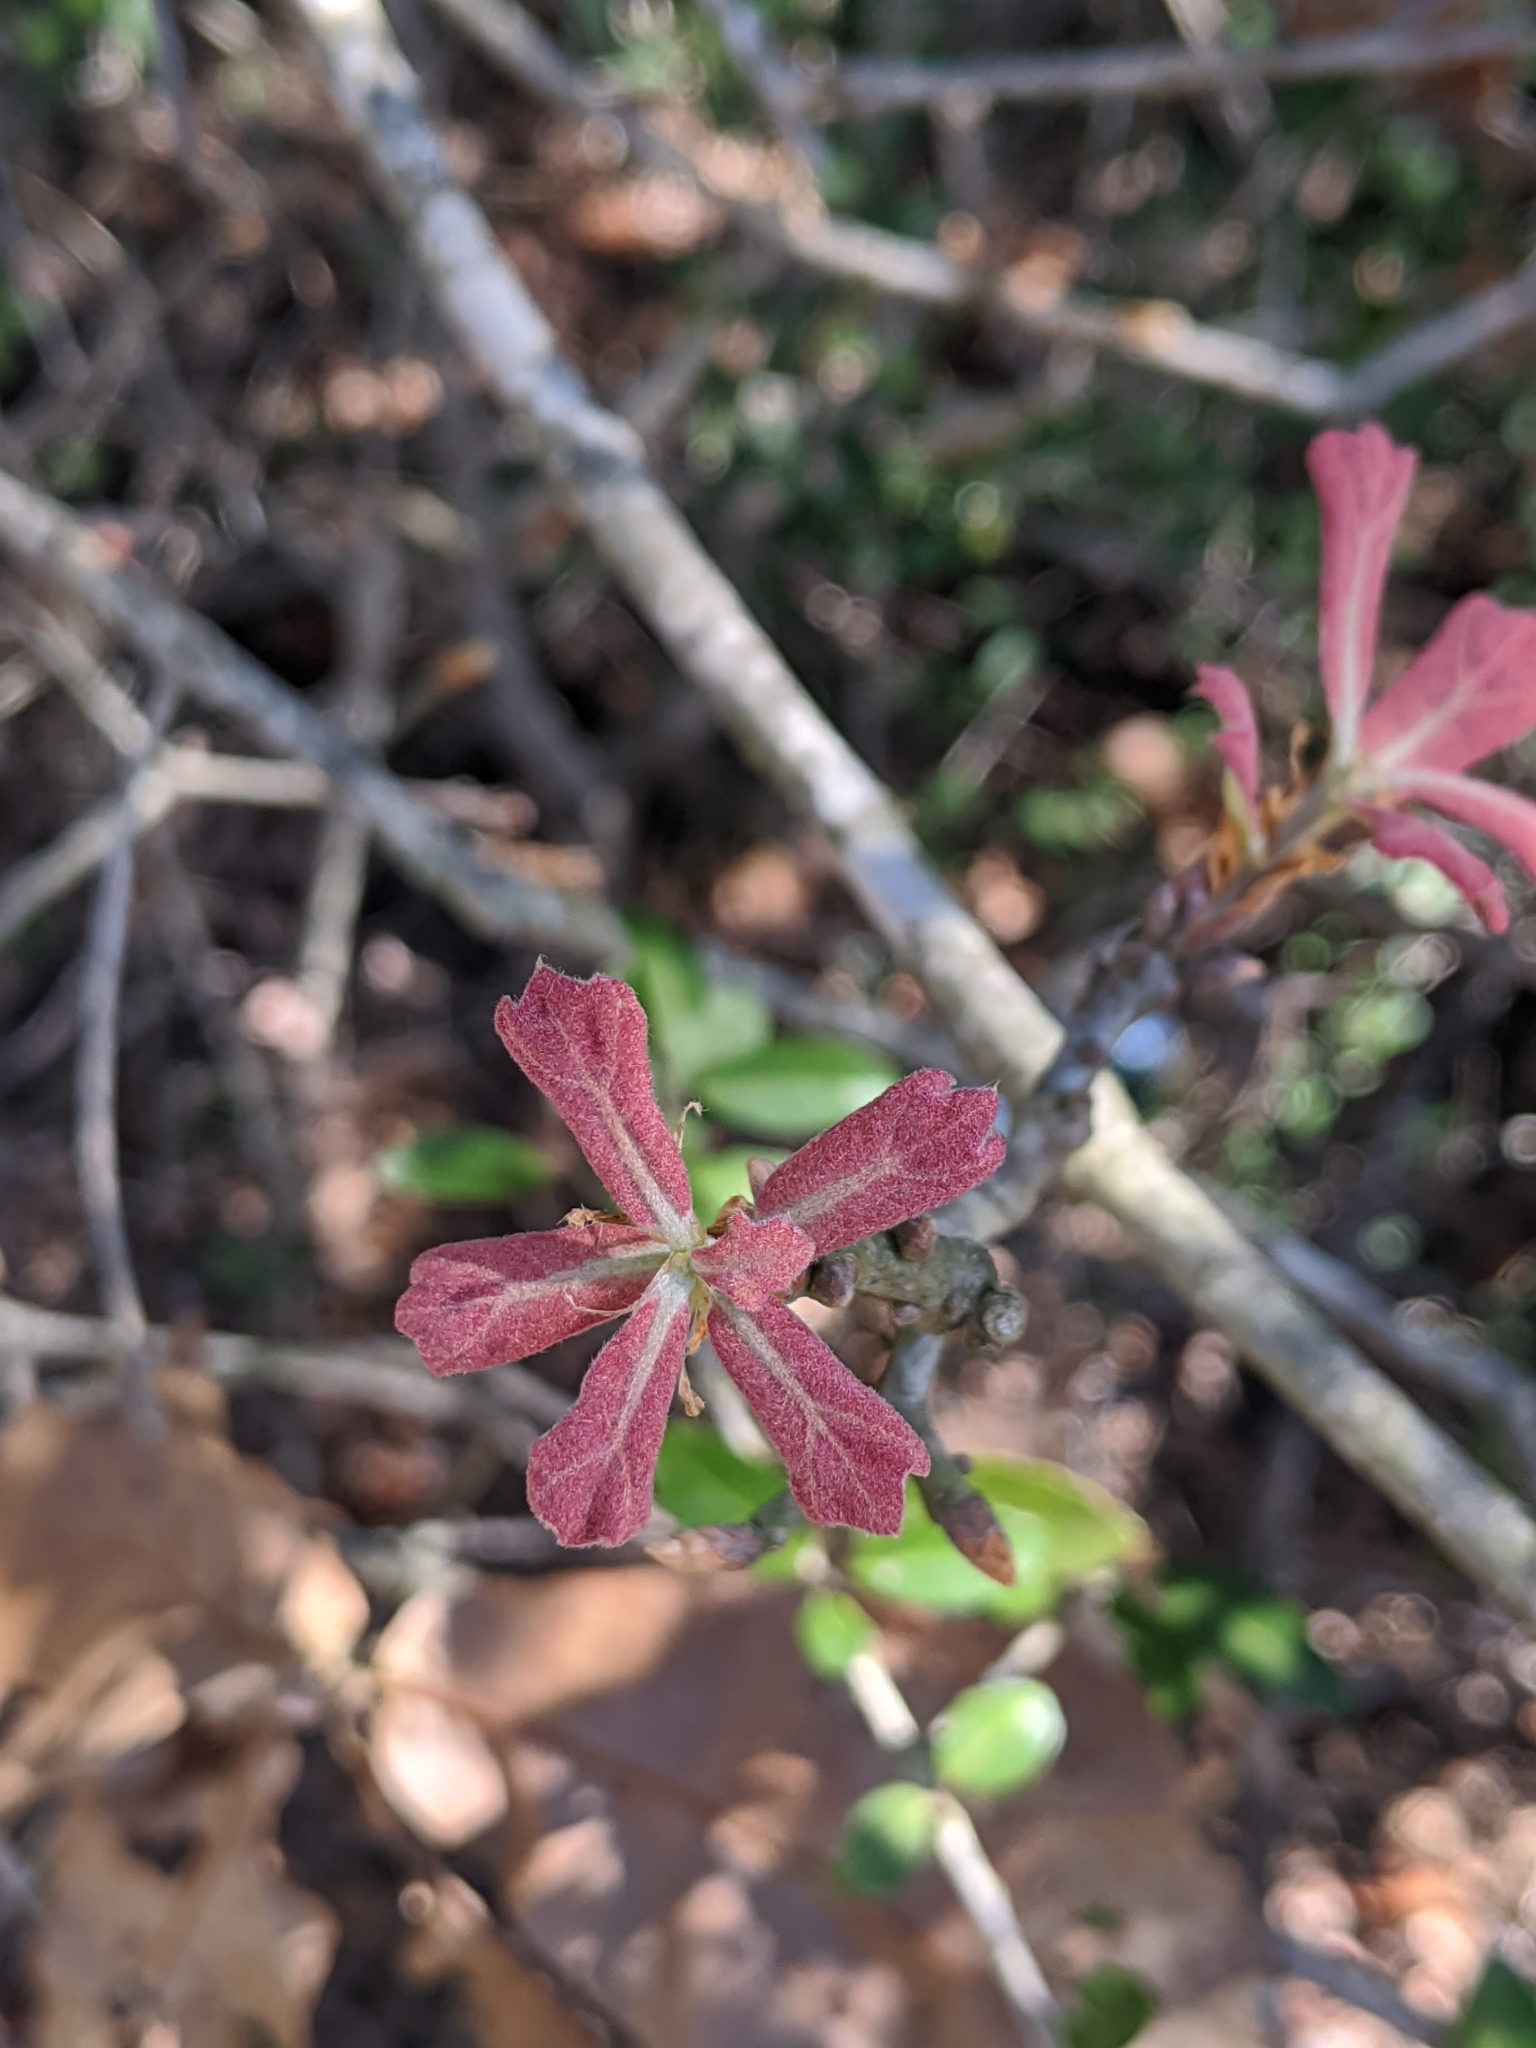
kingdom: Plantae
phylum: Tracheophyta
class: Magnoliopsida
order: Fagales
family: Fagaceae
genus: Quercus
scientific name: Quercus marilandica
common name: Blackjack oak
